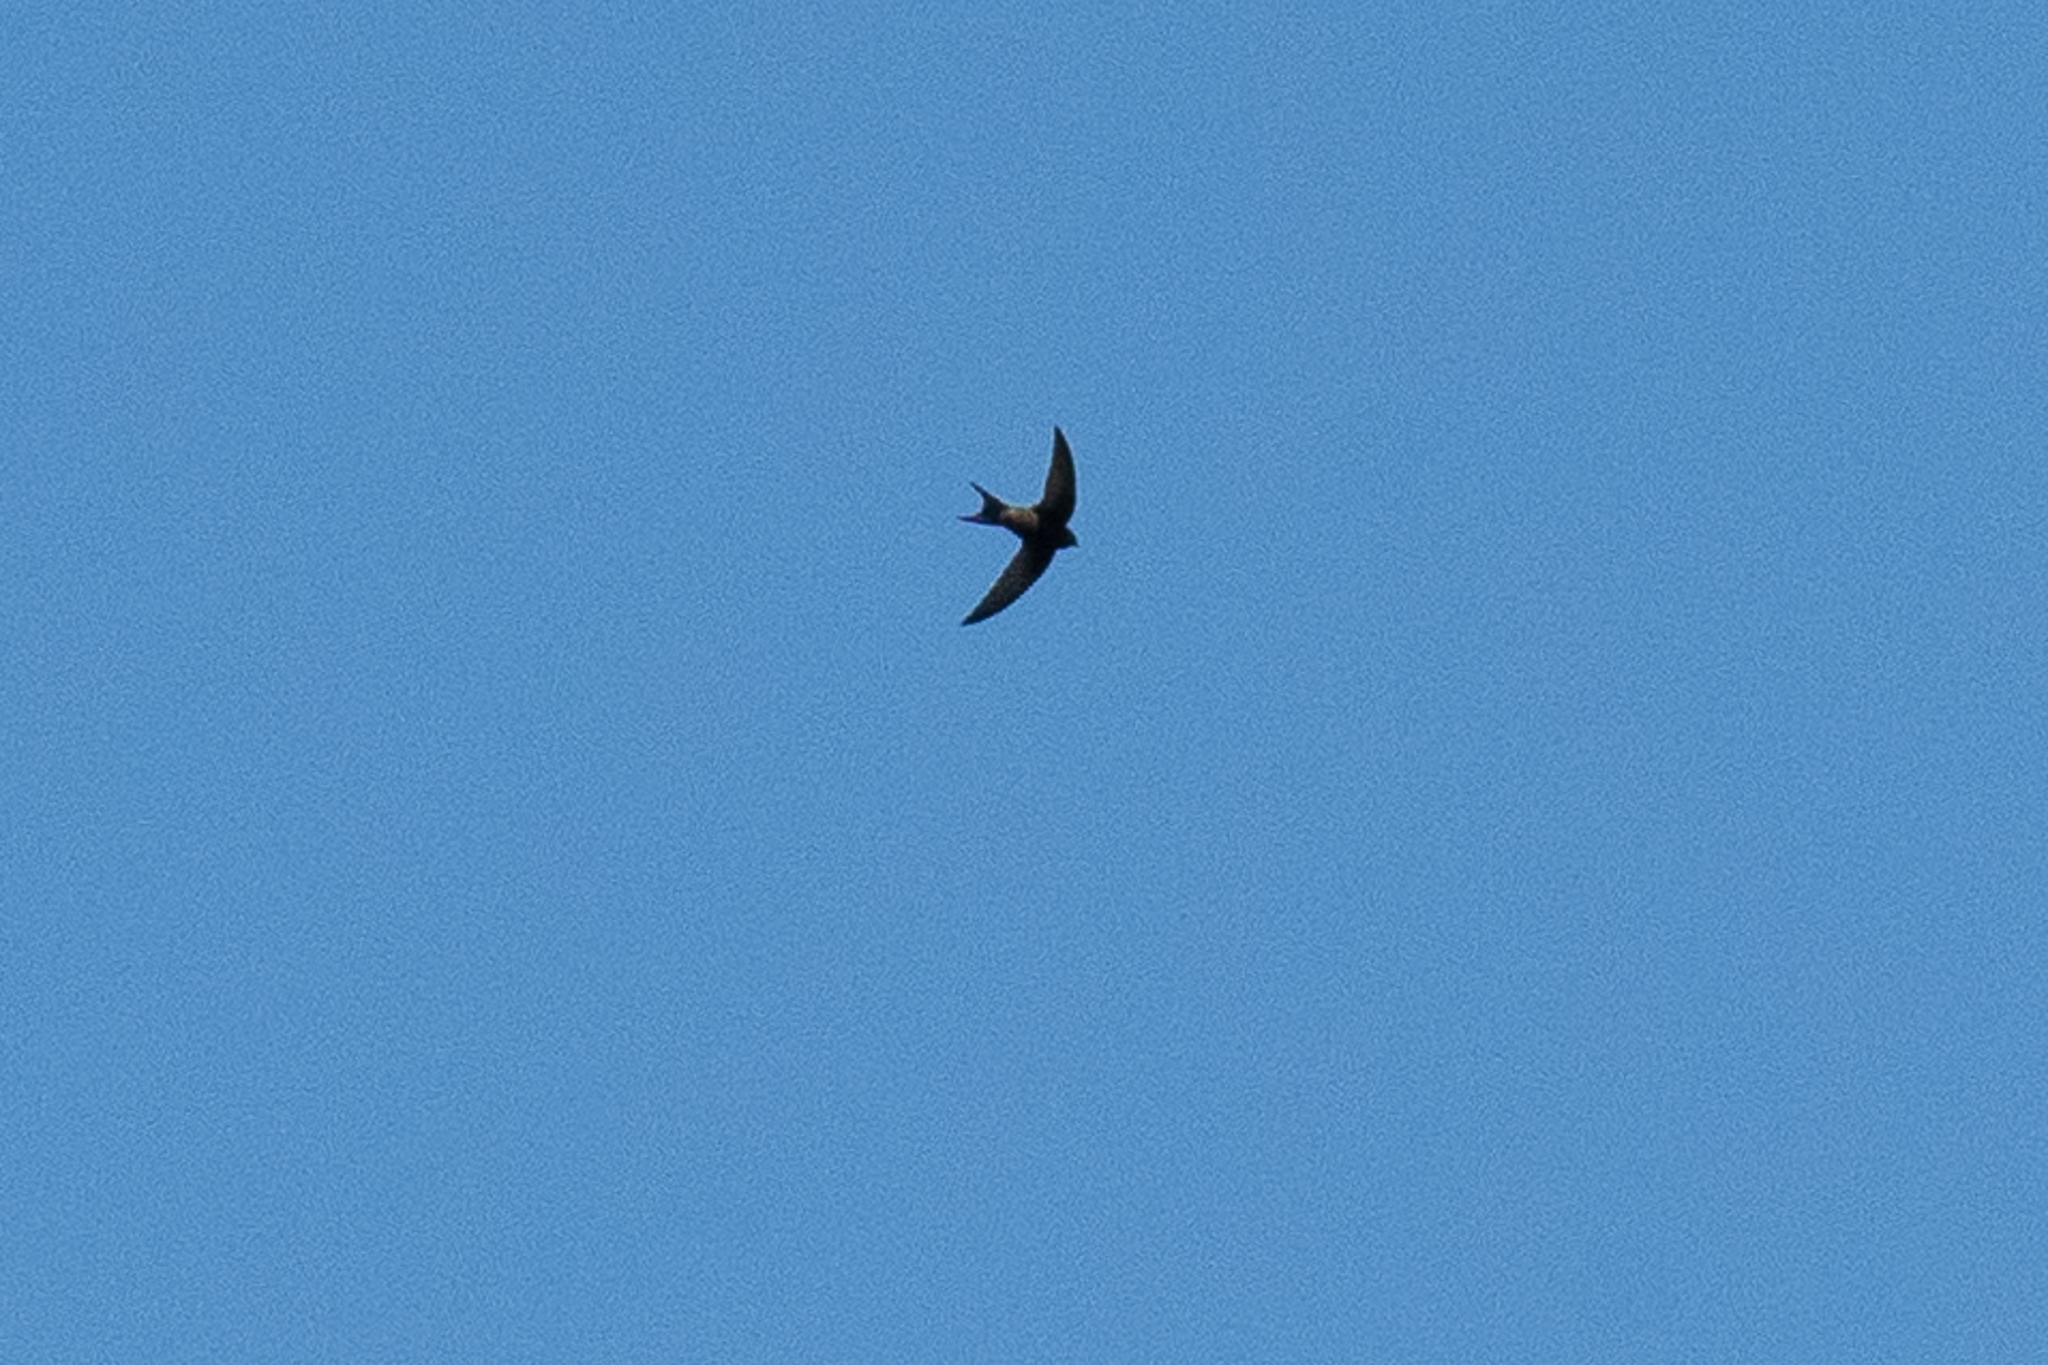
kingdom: Animalia
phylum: Chordata
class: Aves
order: Apodiformes
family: Apodidae
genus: Apus
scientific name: Apus apus
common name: Common swift
